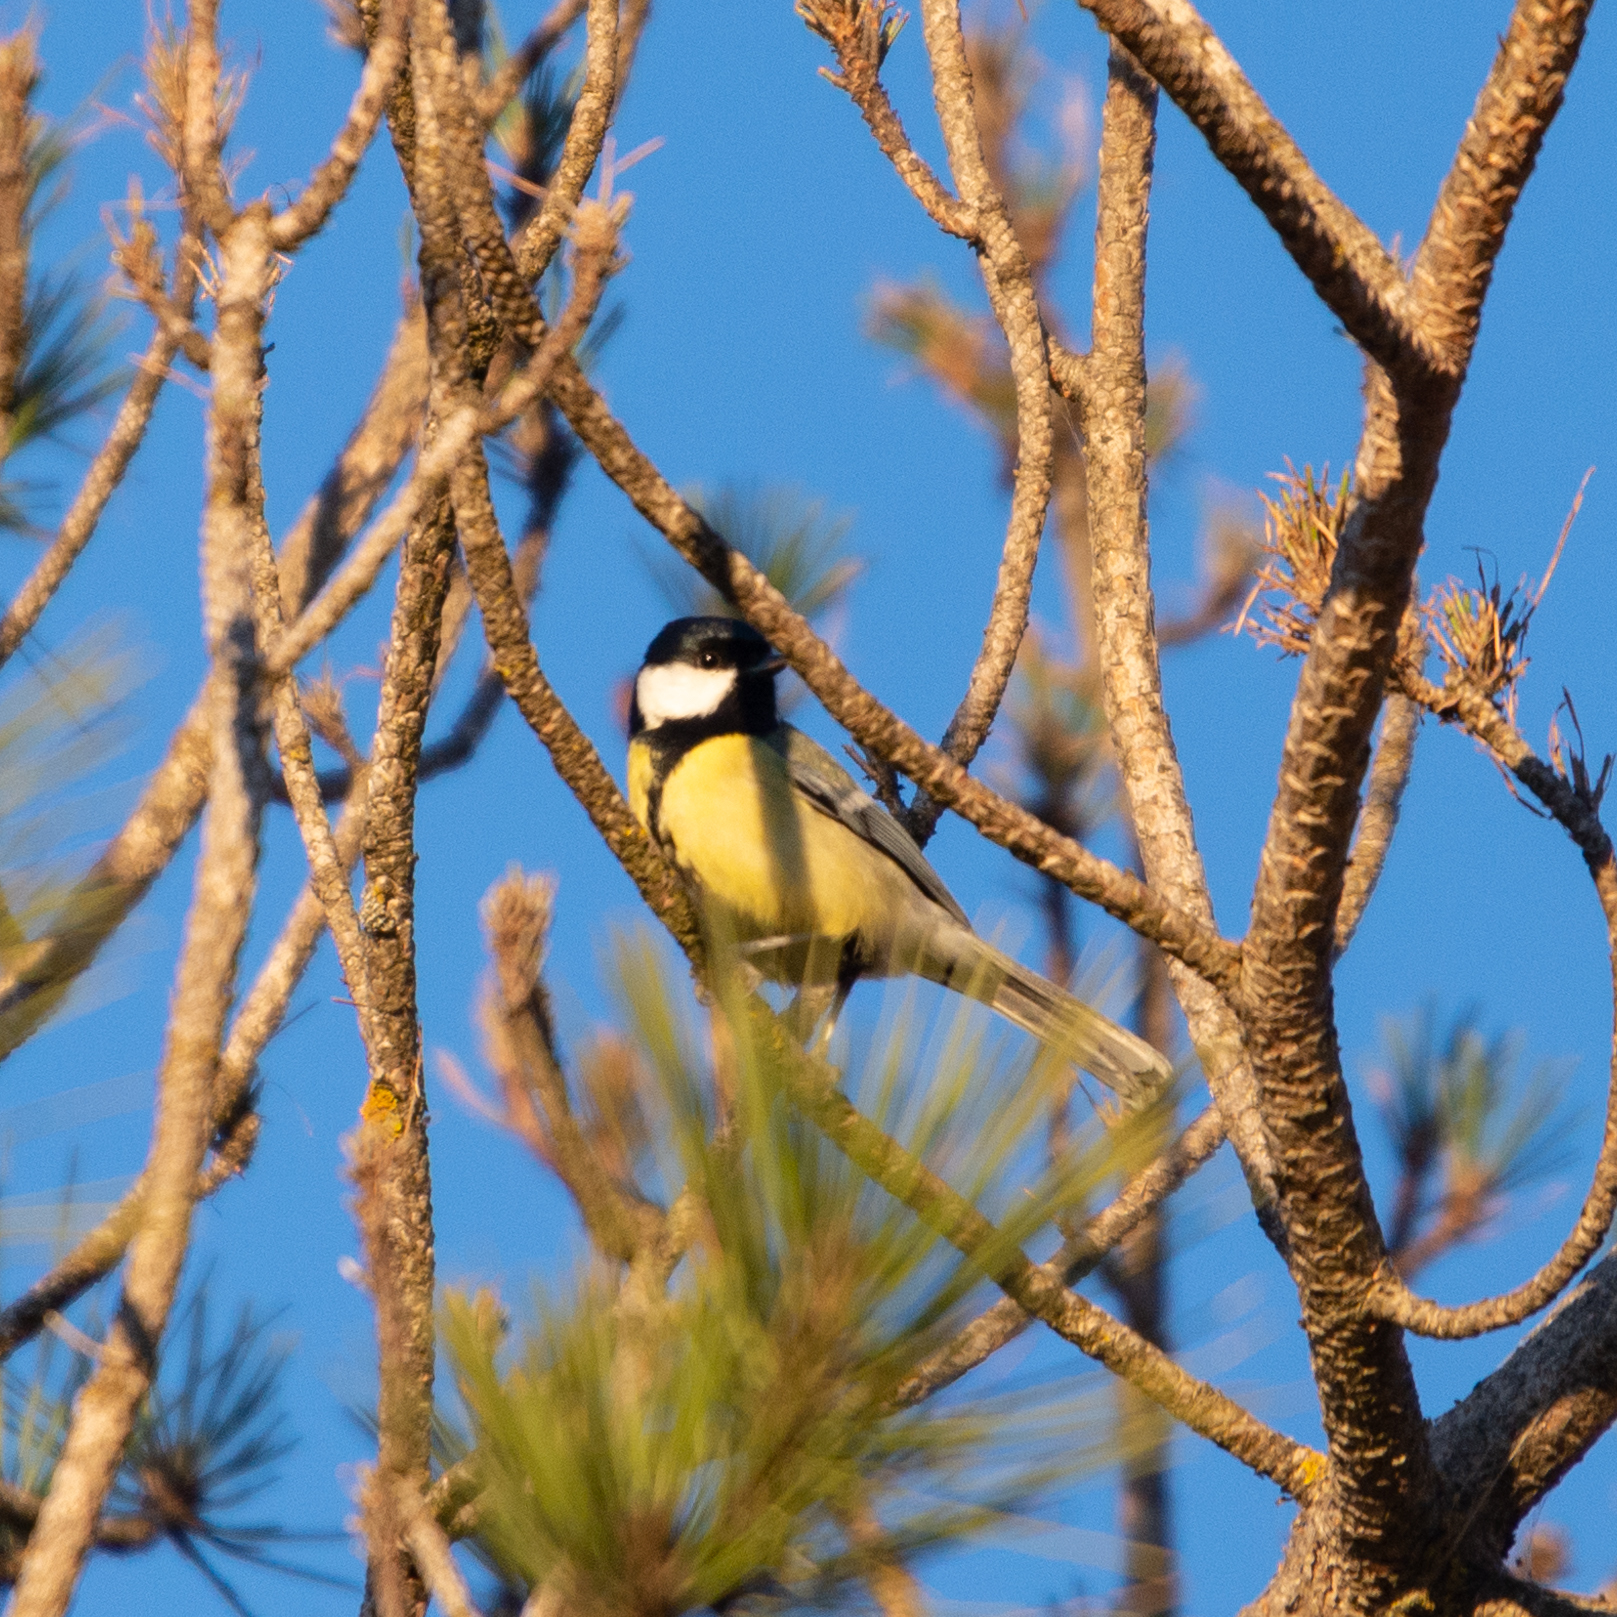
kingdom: Animalia
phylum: Chordata
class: Aves
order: Passeriformes
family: Paridae
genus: Parus
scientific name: Parus major
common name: Great tit
